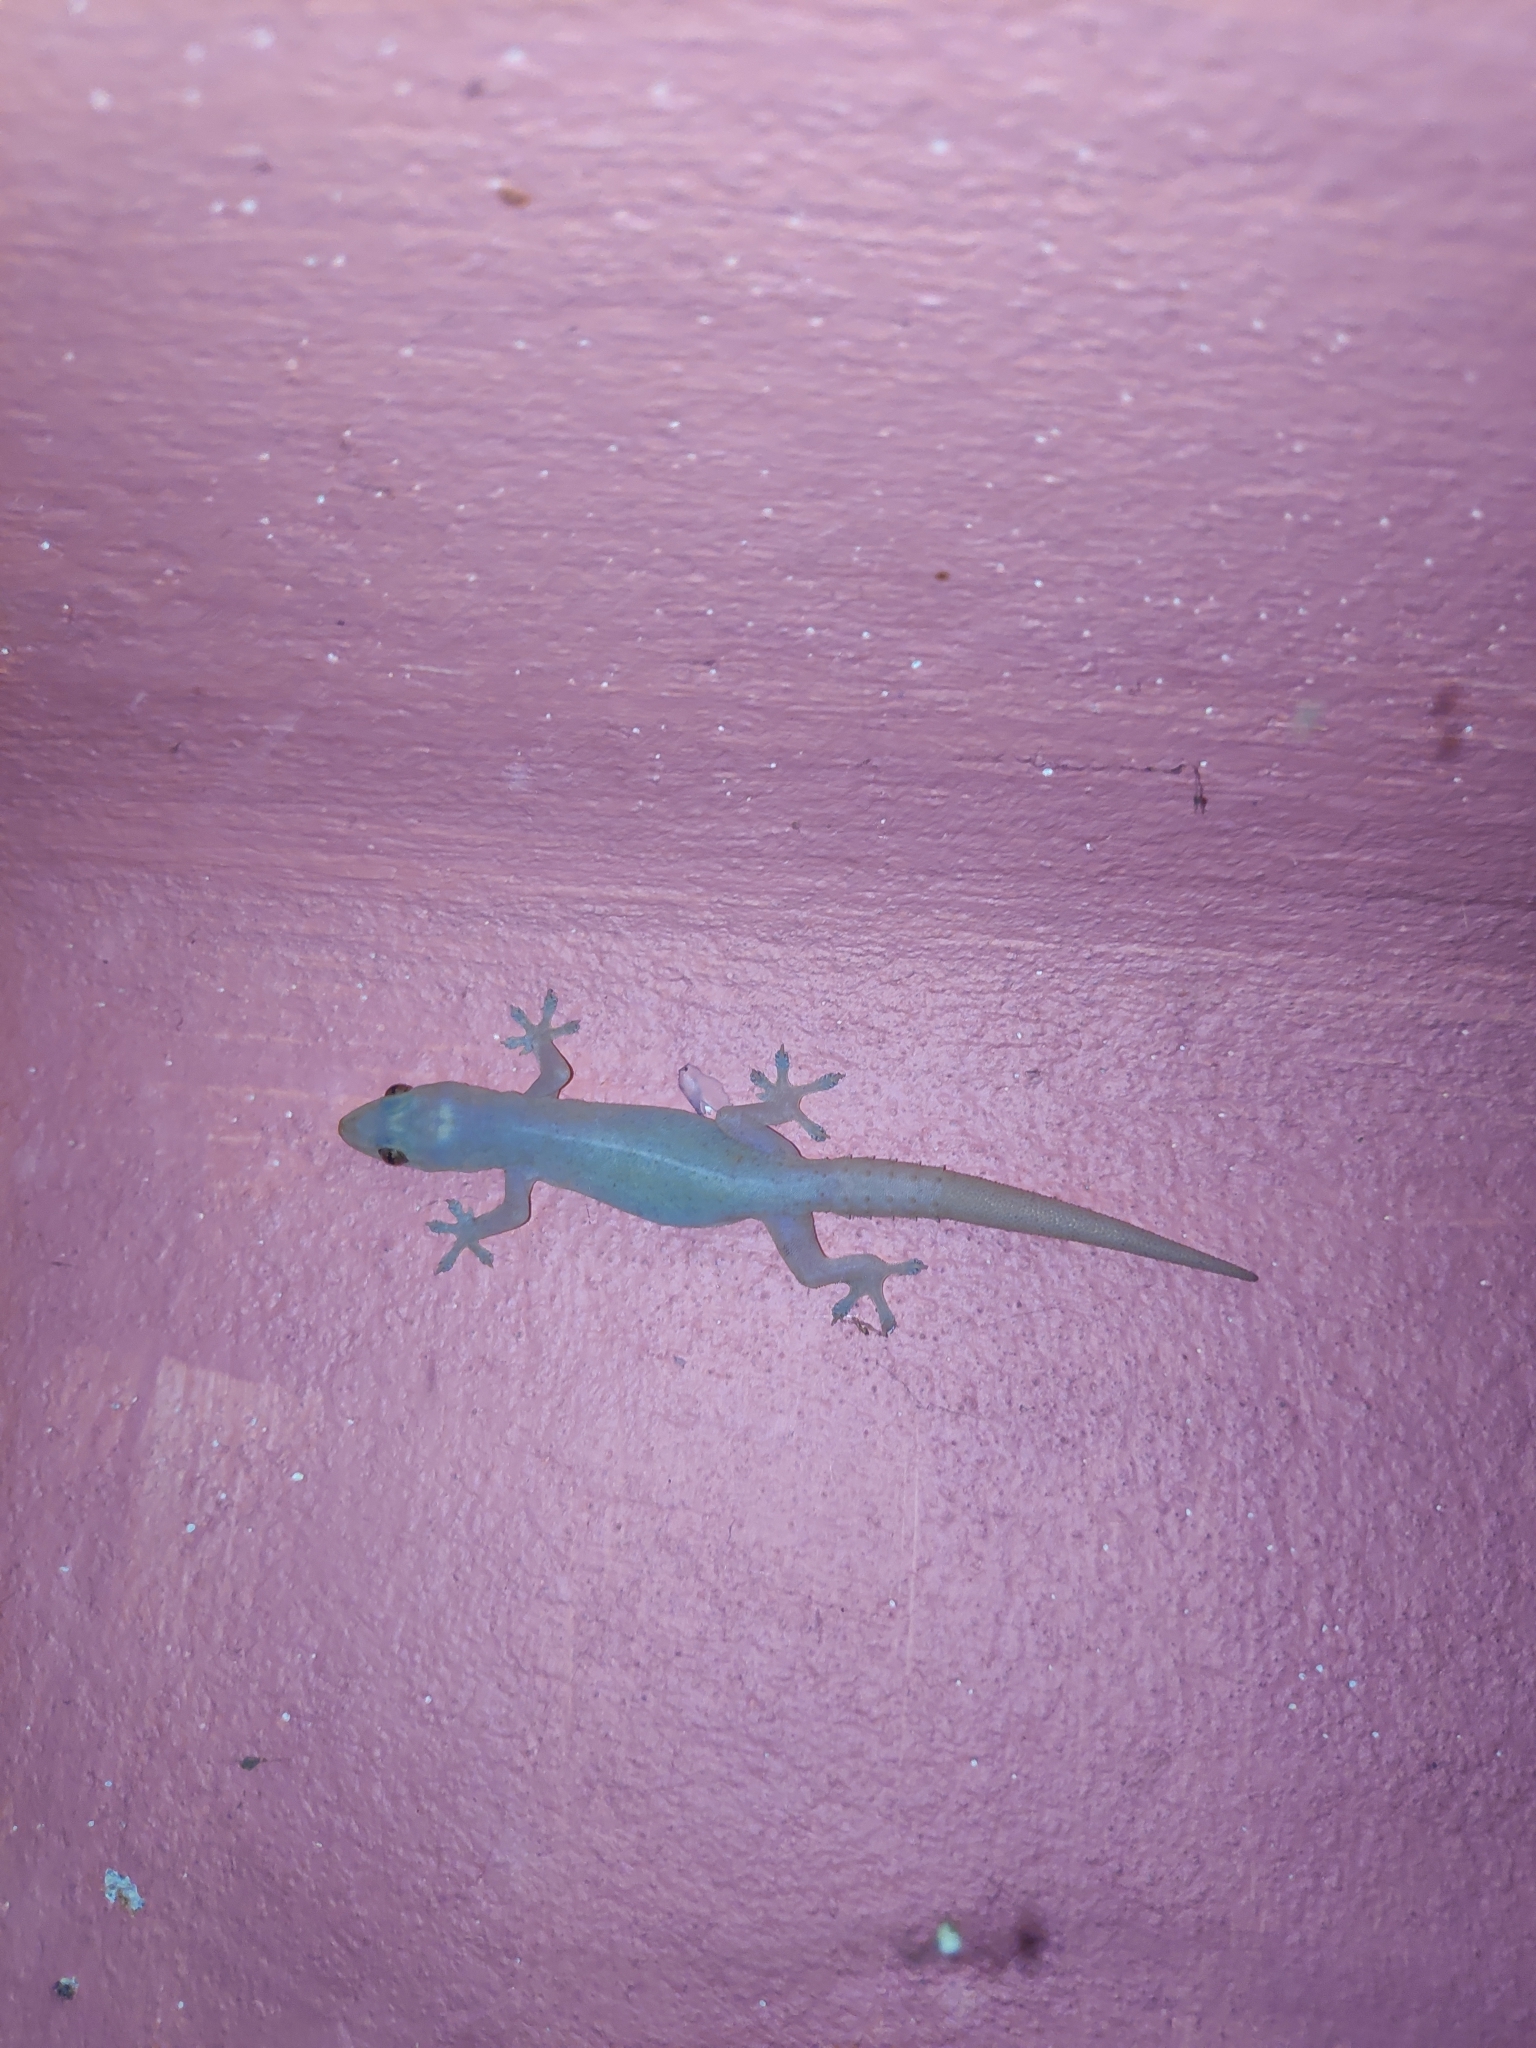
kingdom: Animalia
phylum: Chordata
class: Squamata
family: Gekkonidae
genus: Hemidactylus
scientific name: Hemidactylus frenatus
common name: Common house gecko
